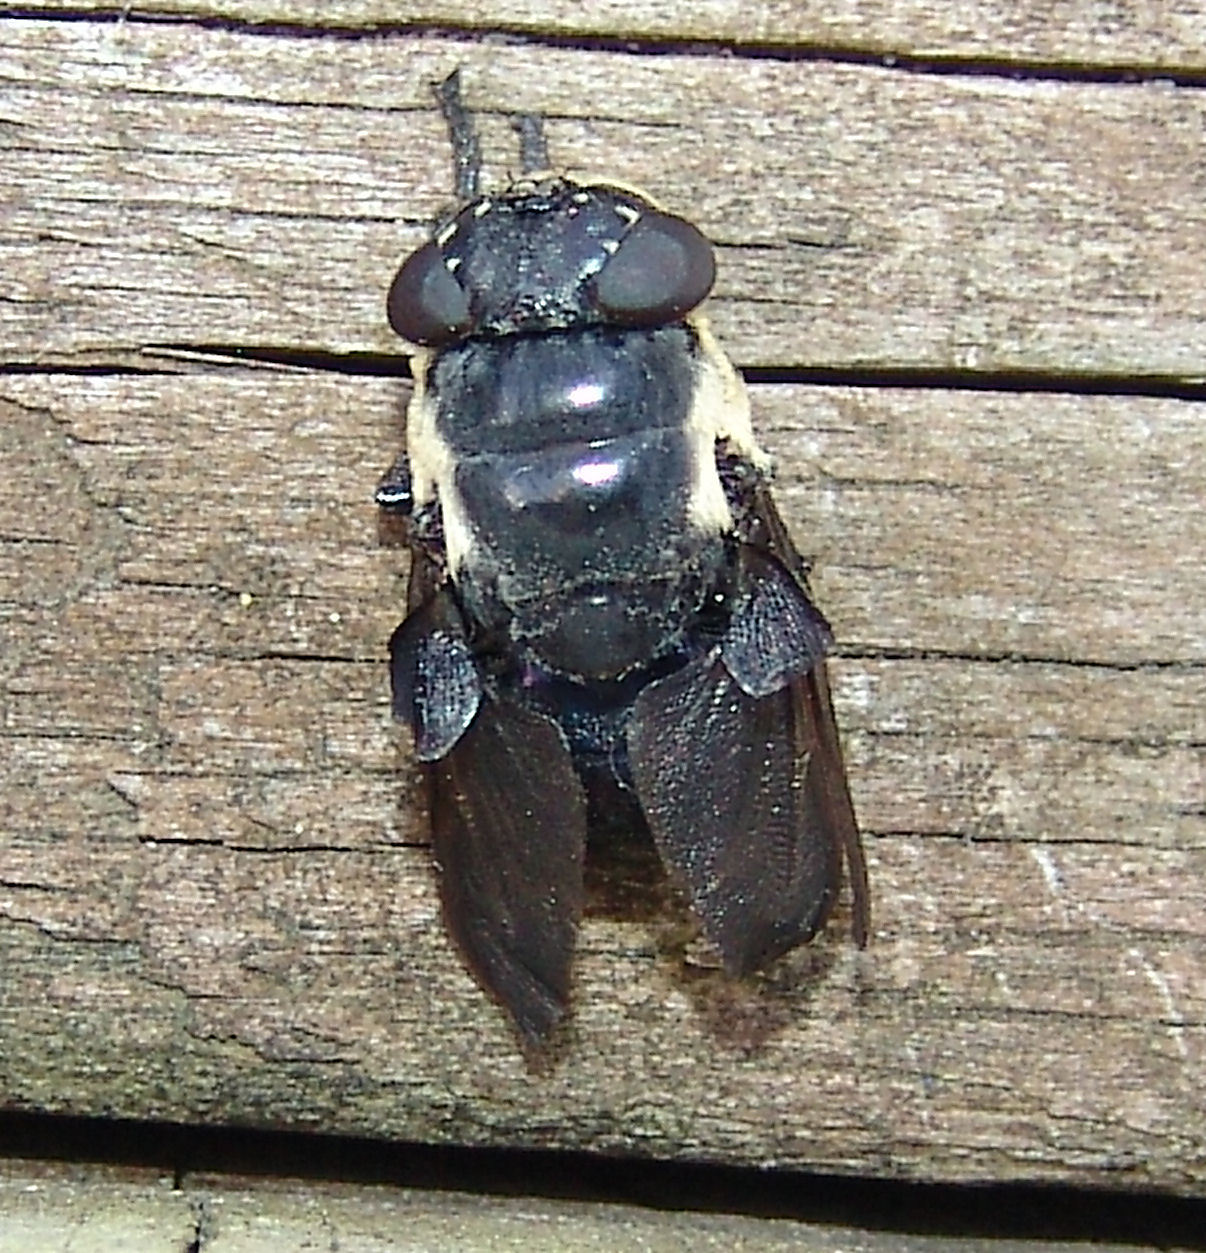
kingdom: Animalia
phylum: Arthropoda
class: Insecta
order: Diptera
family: Oestridae
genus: Cuterebra
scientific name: Cuterebra fontinella
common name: Mouse bot fly
